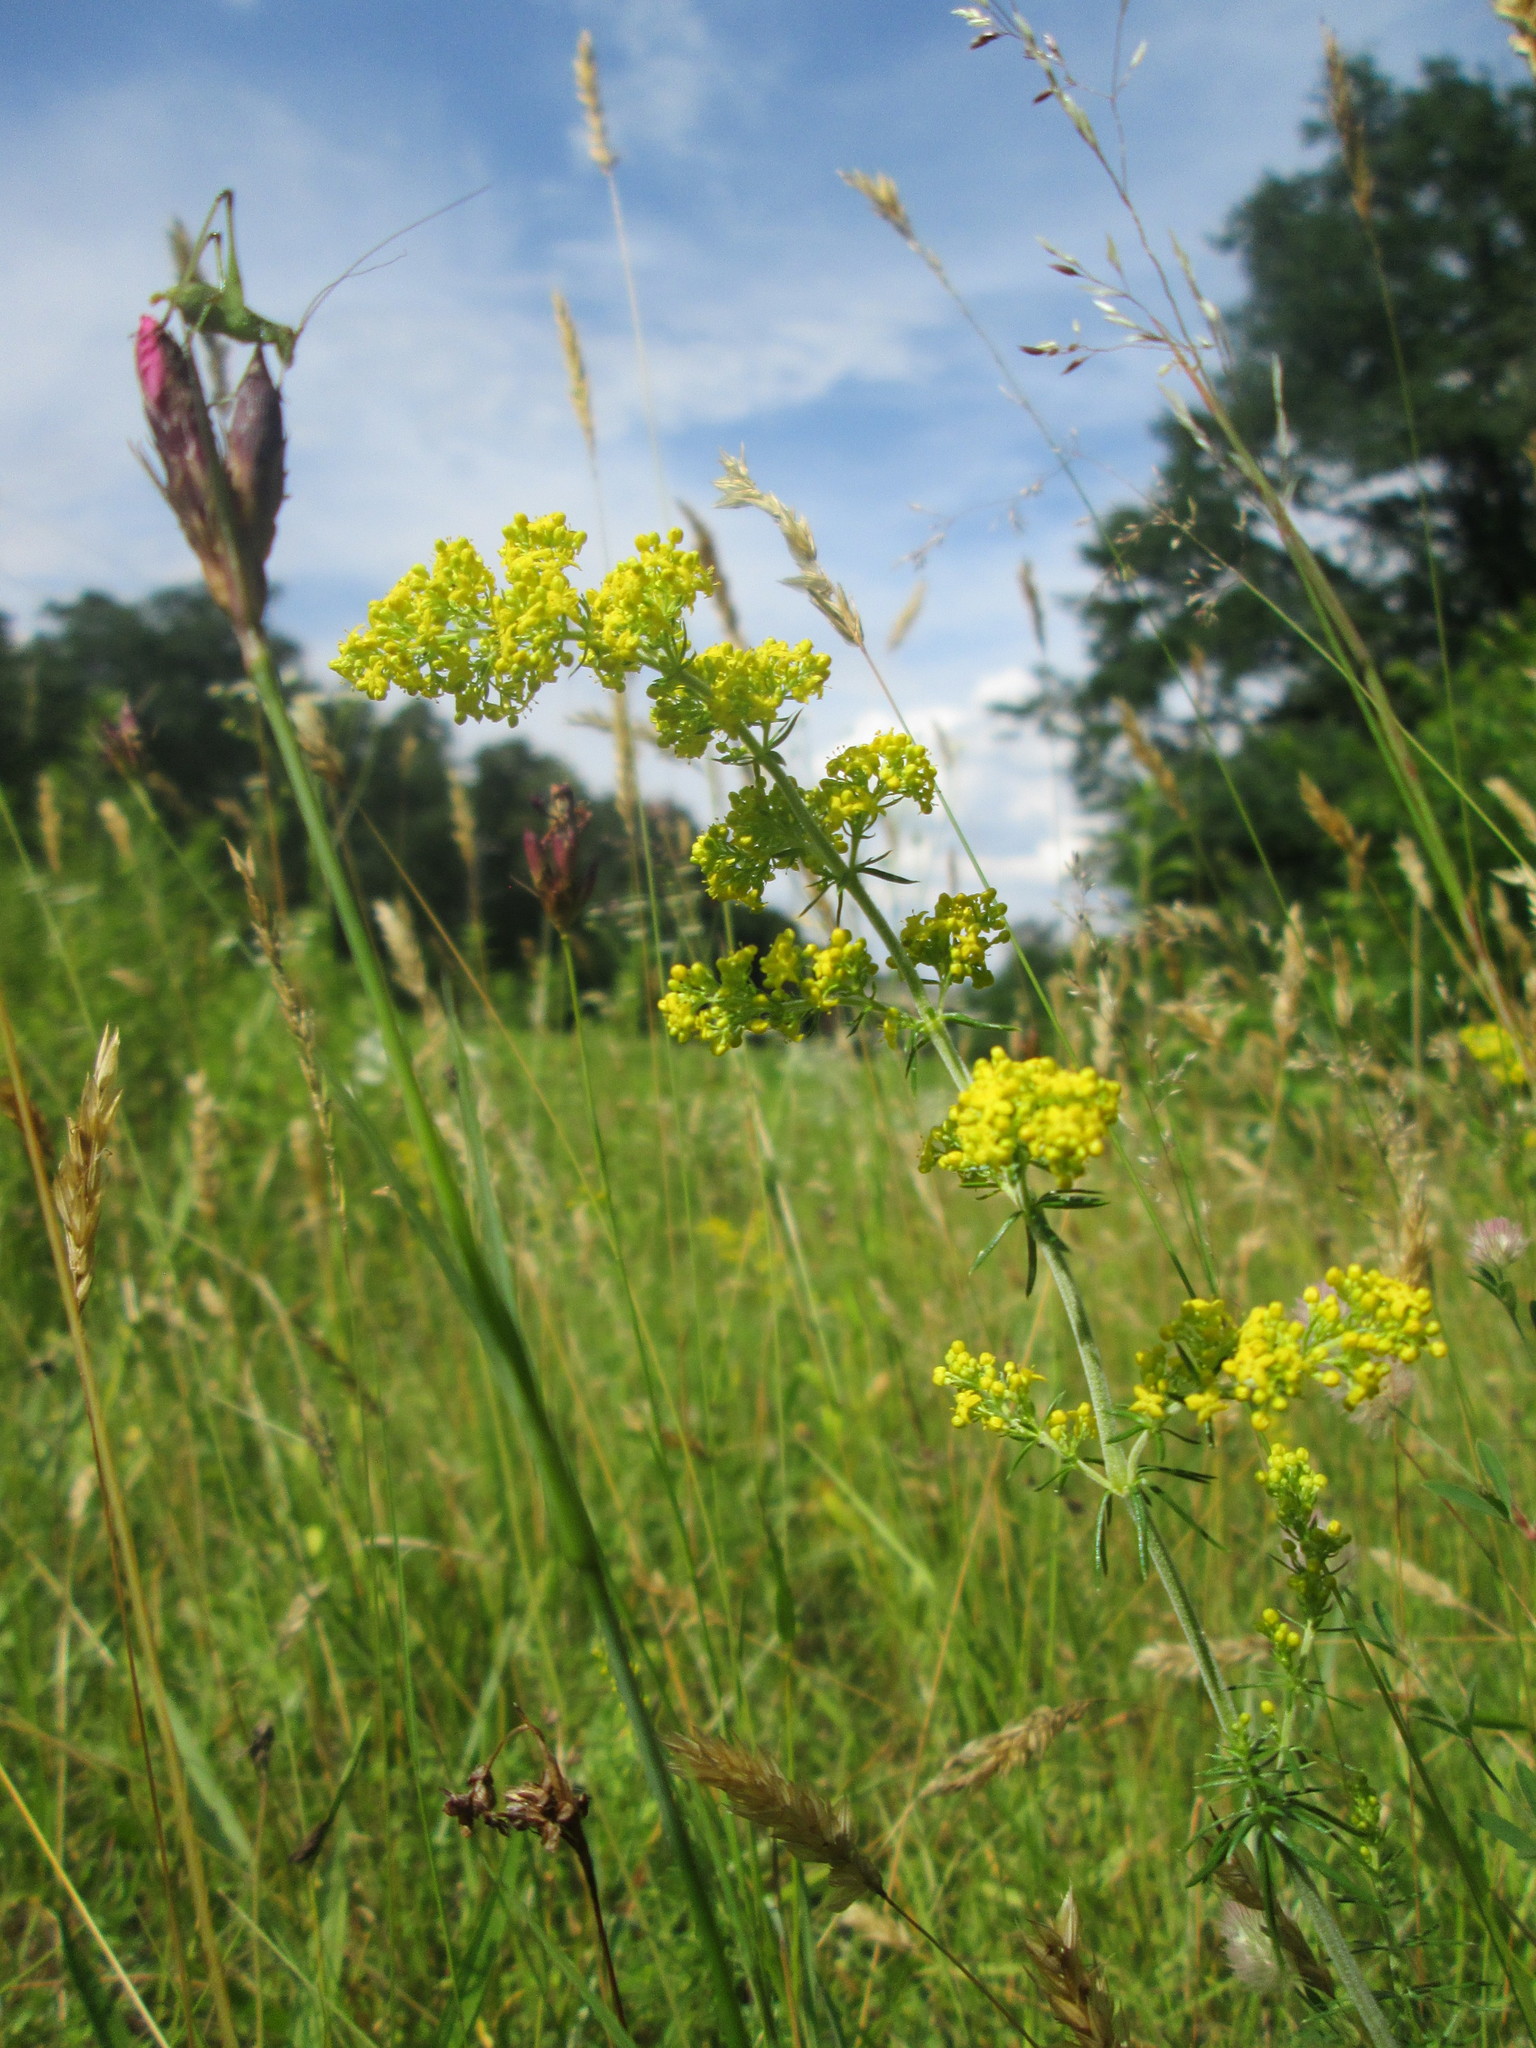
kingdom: Plantae
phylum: Tracheophyta
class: Magnoliopsida
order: Gentianales
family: Rubiaceae
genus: Galium
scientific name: Galium verum
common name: Lady's bedstraw
